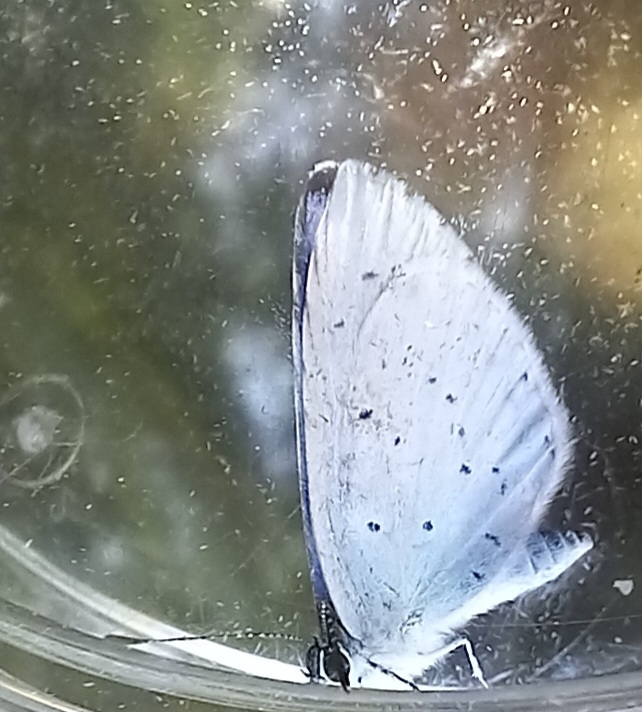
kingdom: Animalia
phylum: Arthropoda
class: Insecta
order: Lepidoptera
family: Lycaenidae
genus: Celastrina
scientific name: Celastrina argiolus
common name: Holly blue
